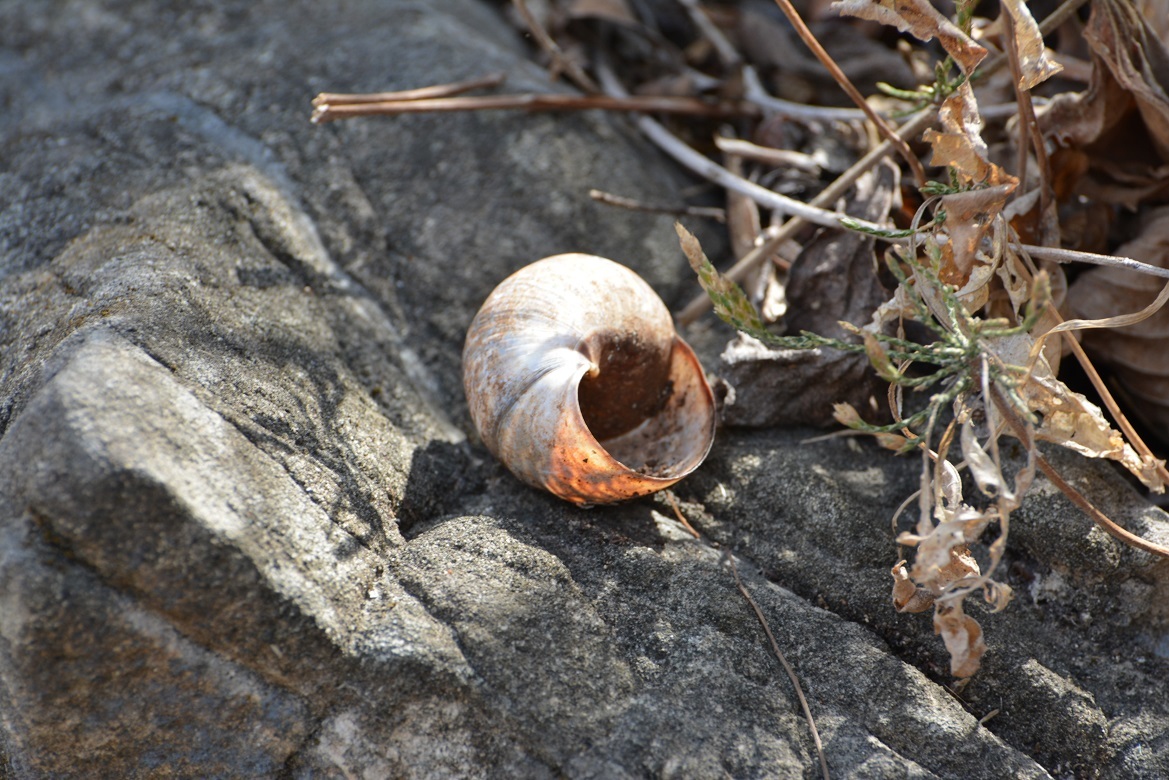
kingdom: Animalia
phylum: Mollusca
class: Gastropoda
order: Stylommatophora
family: Orthalicidae
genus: Orthalicus
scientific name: Orthalicus
